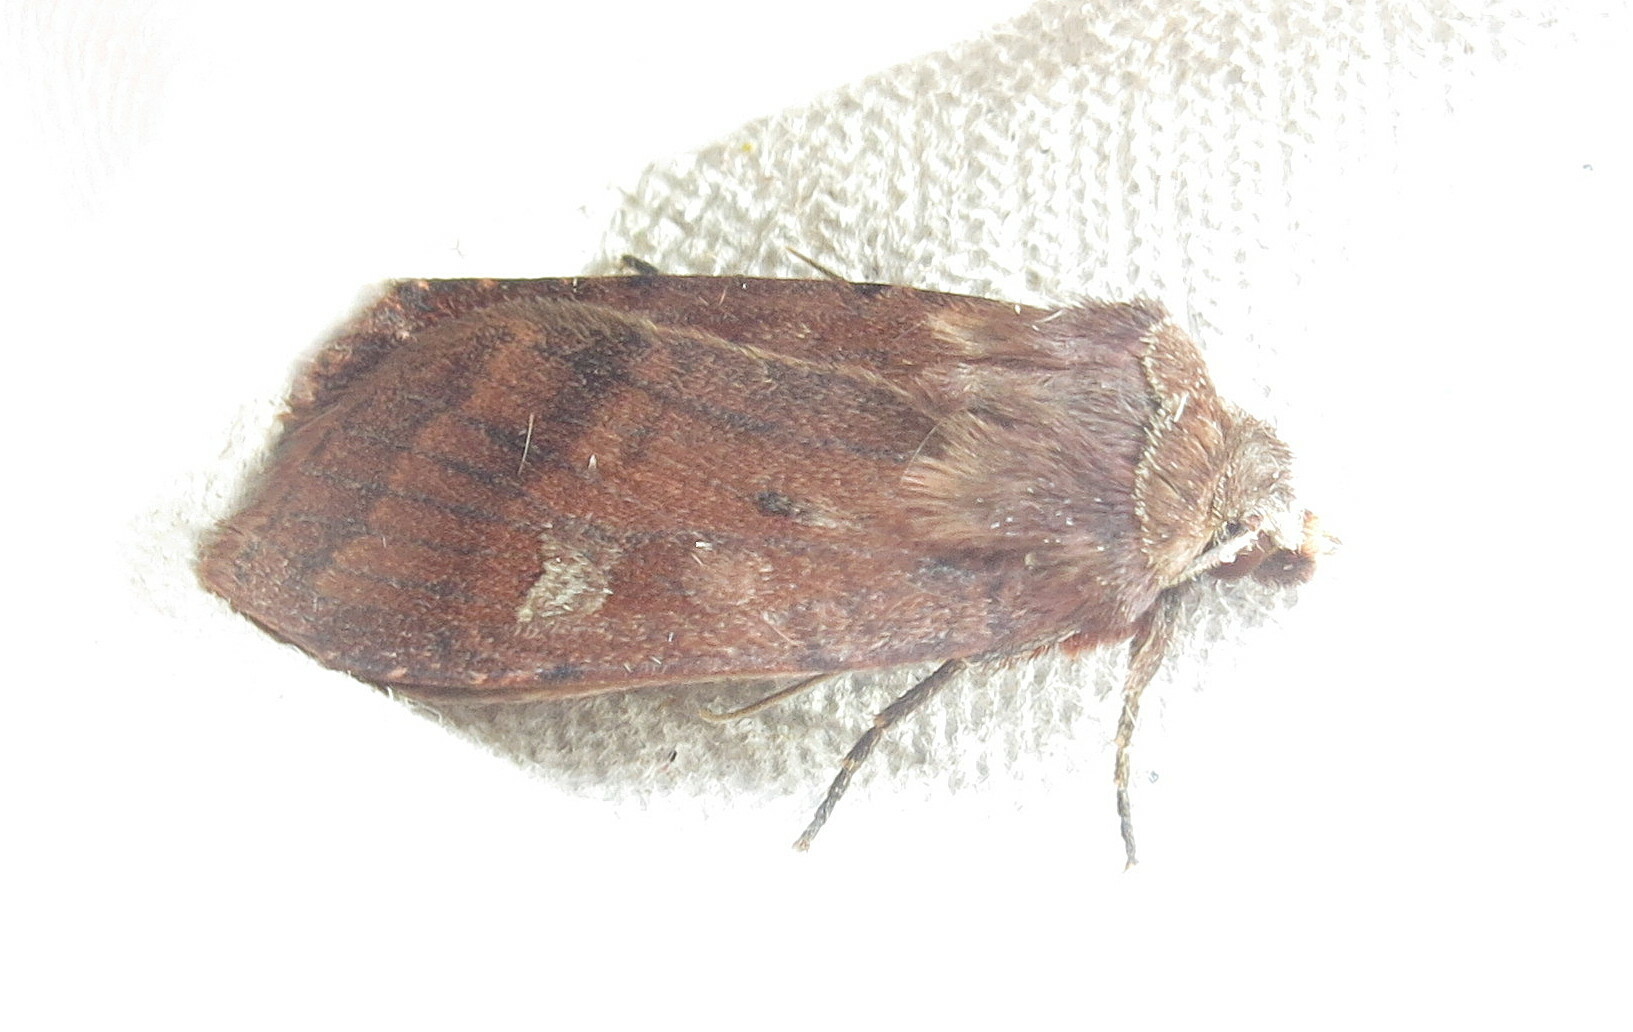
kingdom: Animalia
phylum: Arthropoda
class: Insecta
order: Lepidoptera
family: Noctuidae
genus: Diarsia
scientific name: Diarsia rubi
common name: Small square-spot
